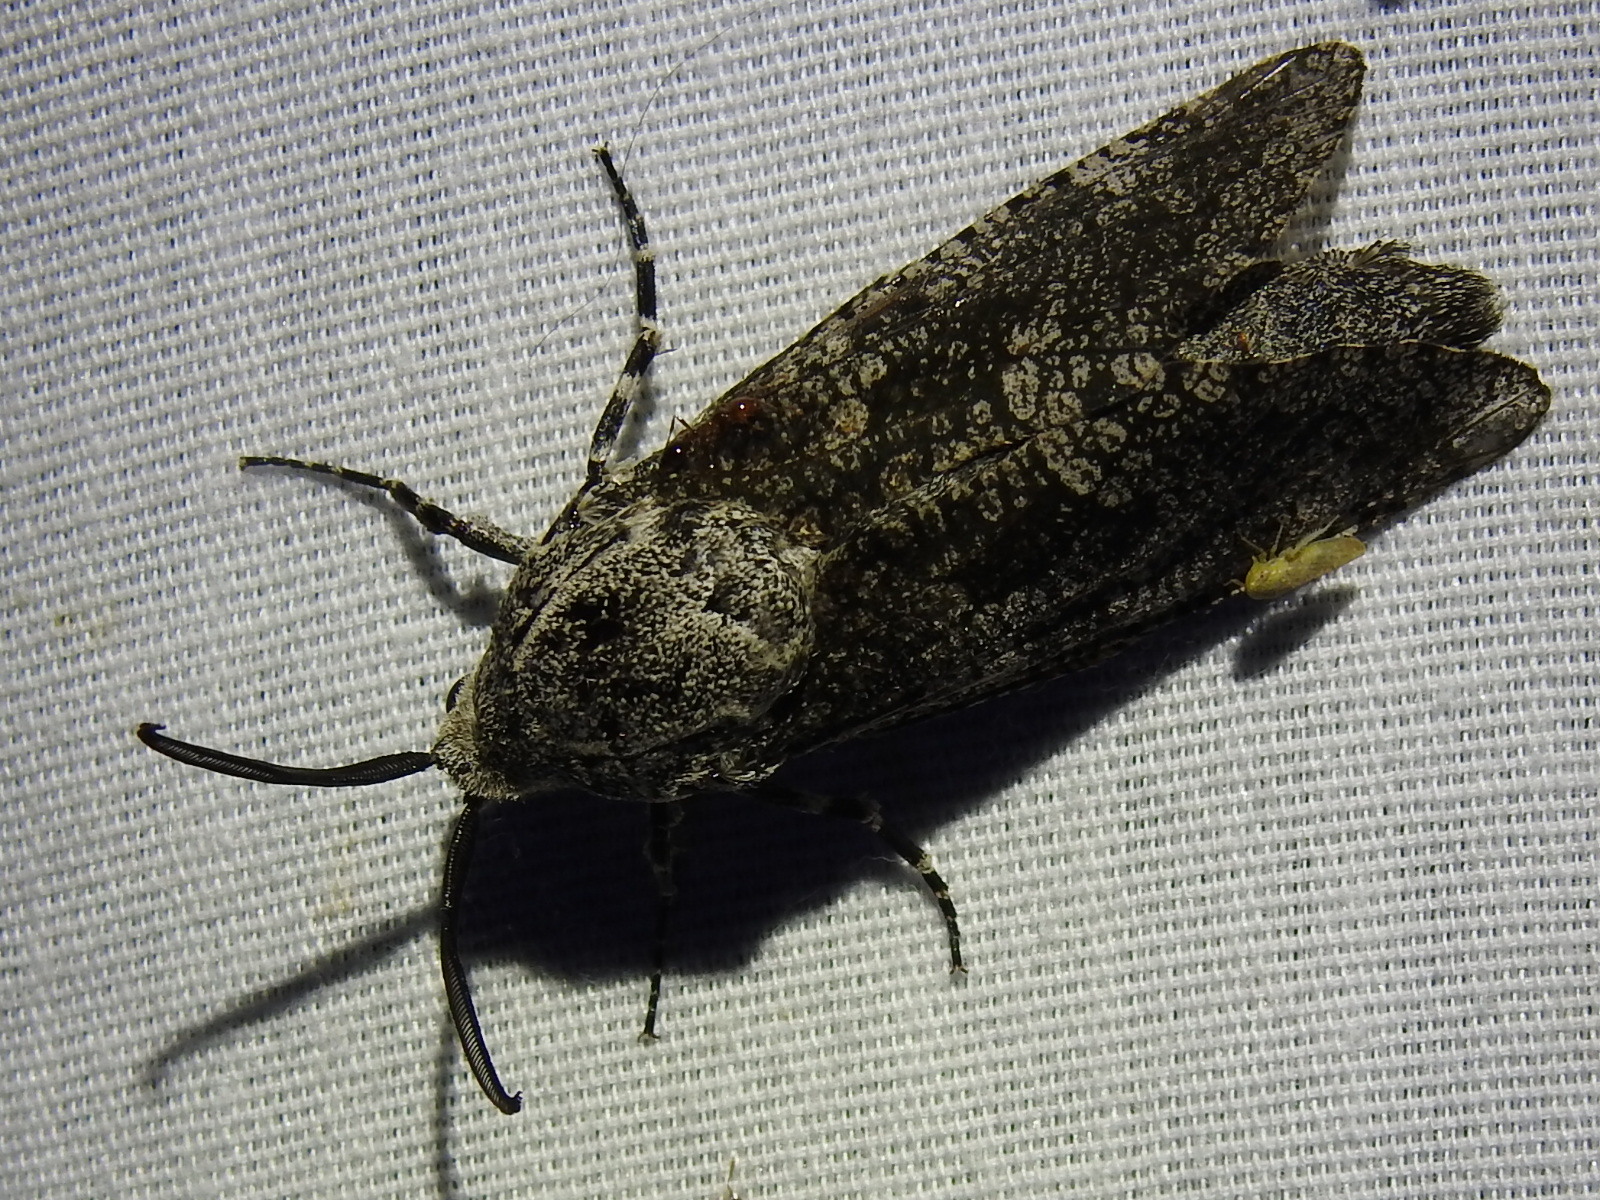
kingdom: Animalia
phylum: Arthropoda
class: Insecta
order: Lepidoptera
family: Cossidae
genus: Prionoxystus
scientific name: Prionoxystus robiniae
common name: Carpenterworm
